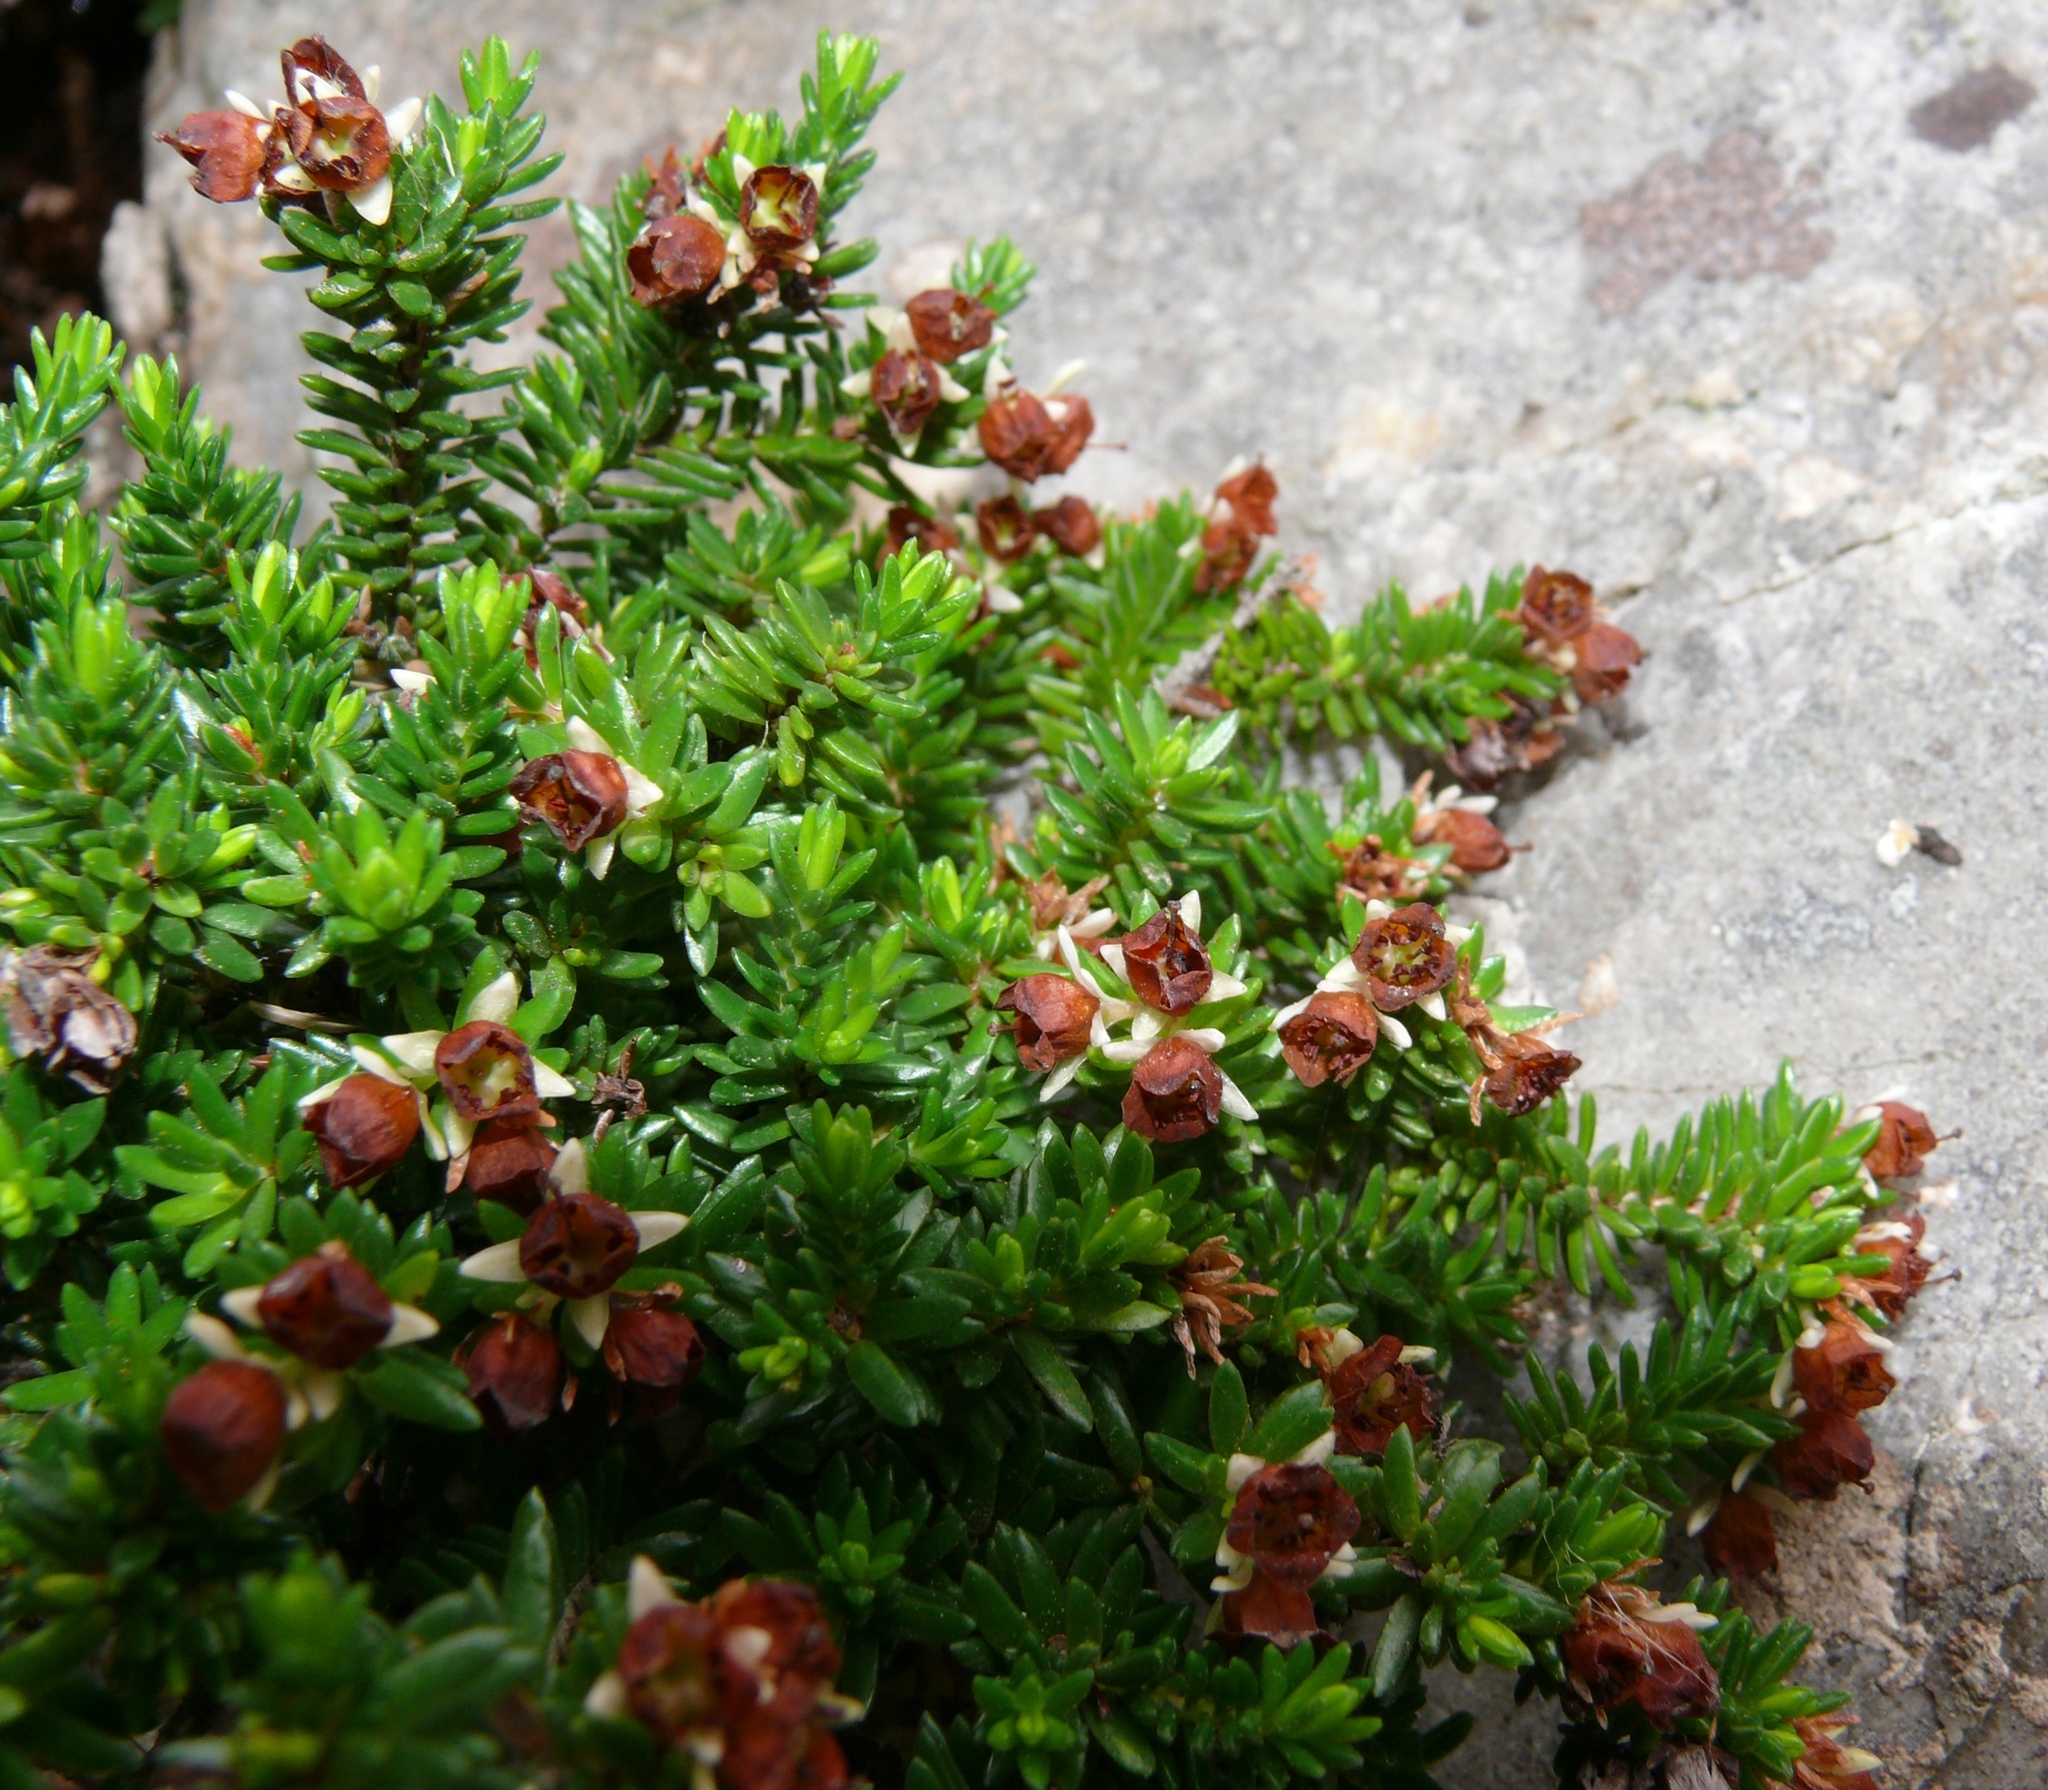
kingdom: Plantae
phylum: Tracheophyta
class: Magnoliopsida
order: Ericales
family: Ericaceae
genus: Erica
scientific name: Erica depressa
